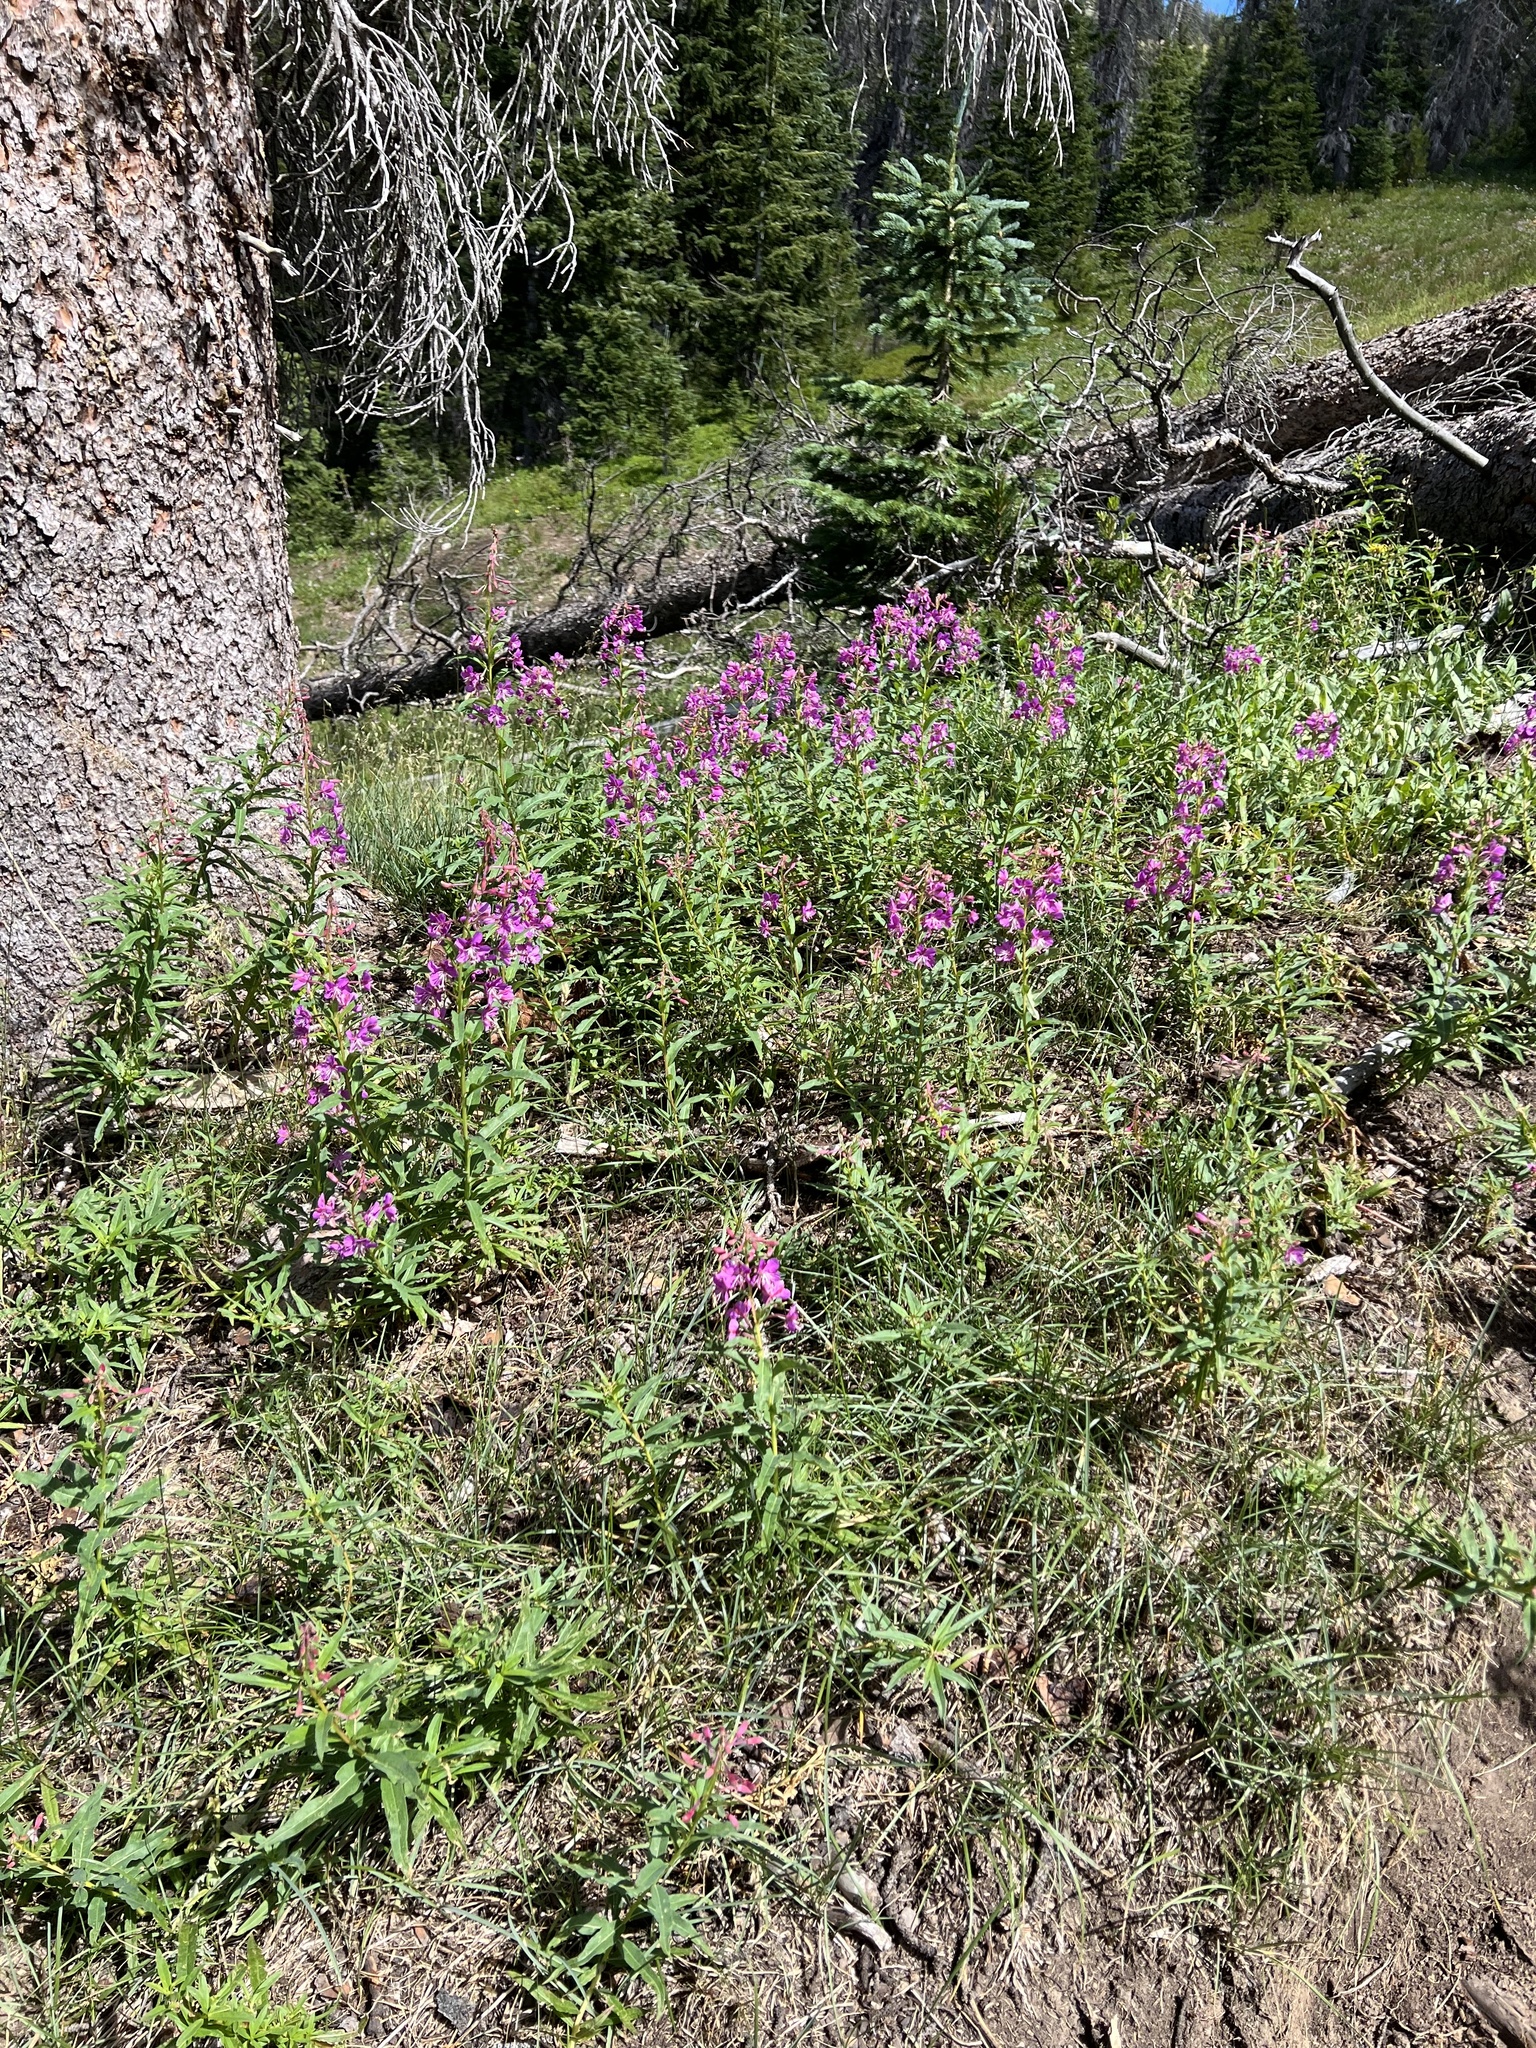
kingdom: Plantae
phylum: Tracheophyta
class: Magnoliopsida
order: Myrtales
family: Onagraceae
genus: Chamaenerion
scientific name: Chamaenerion angustifolium
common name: Fireweed
